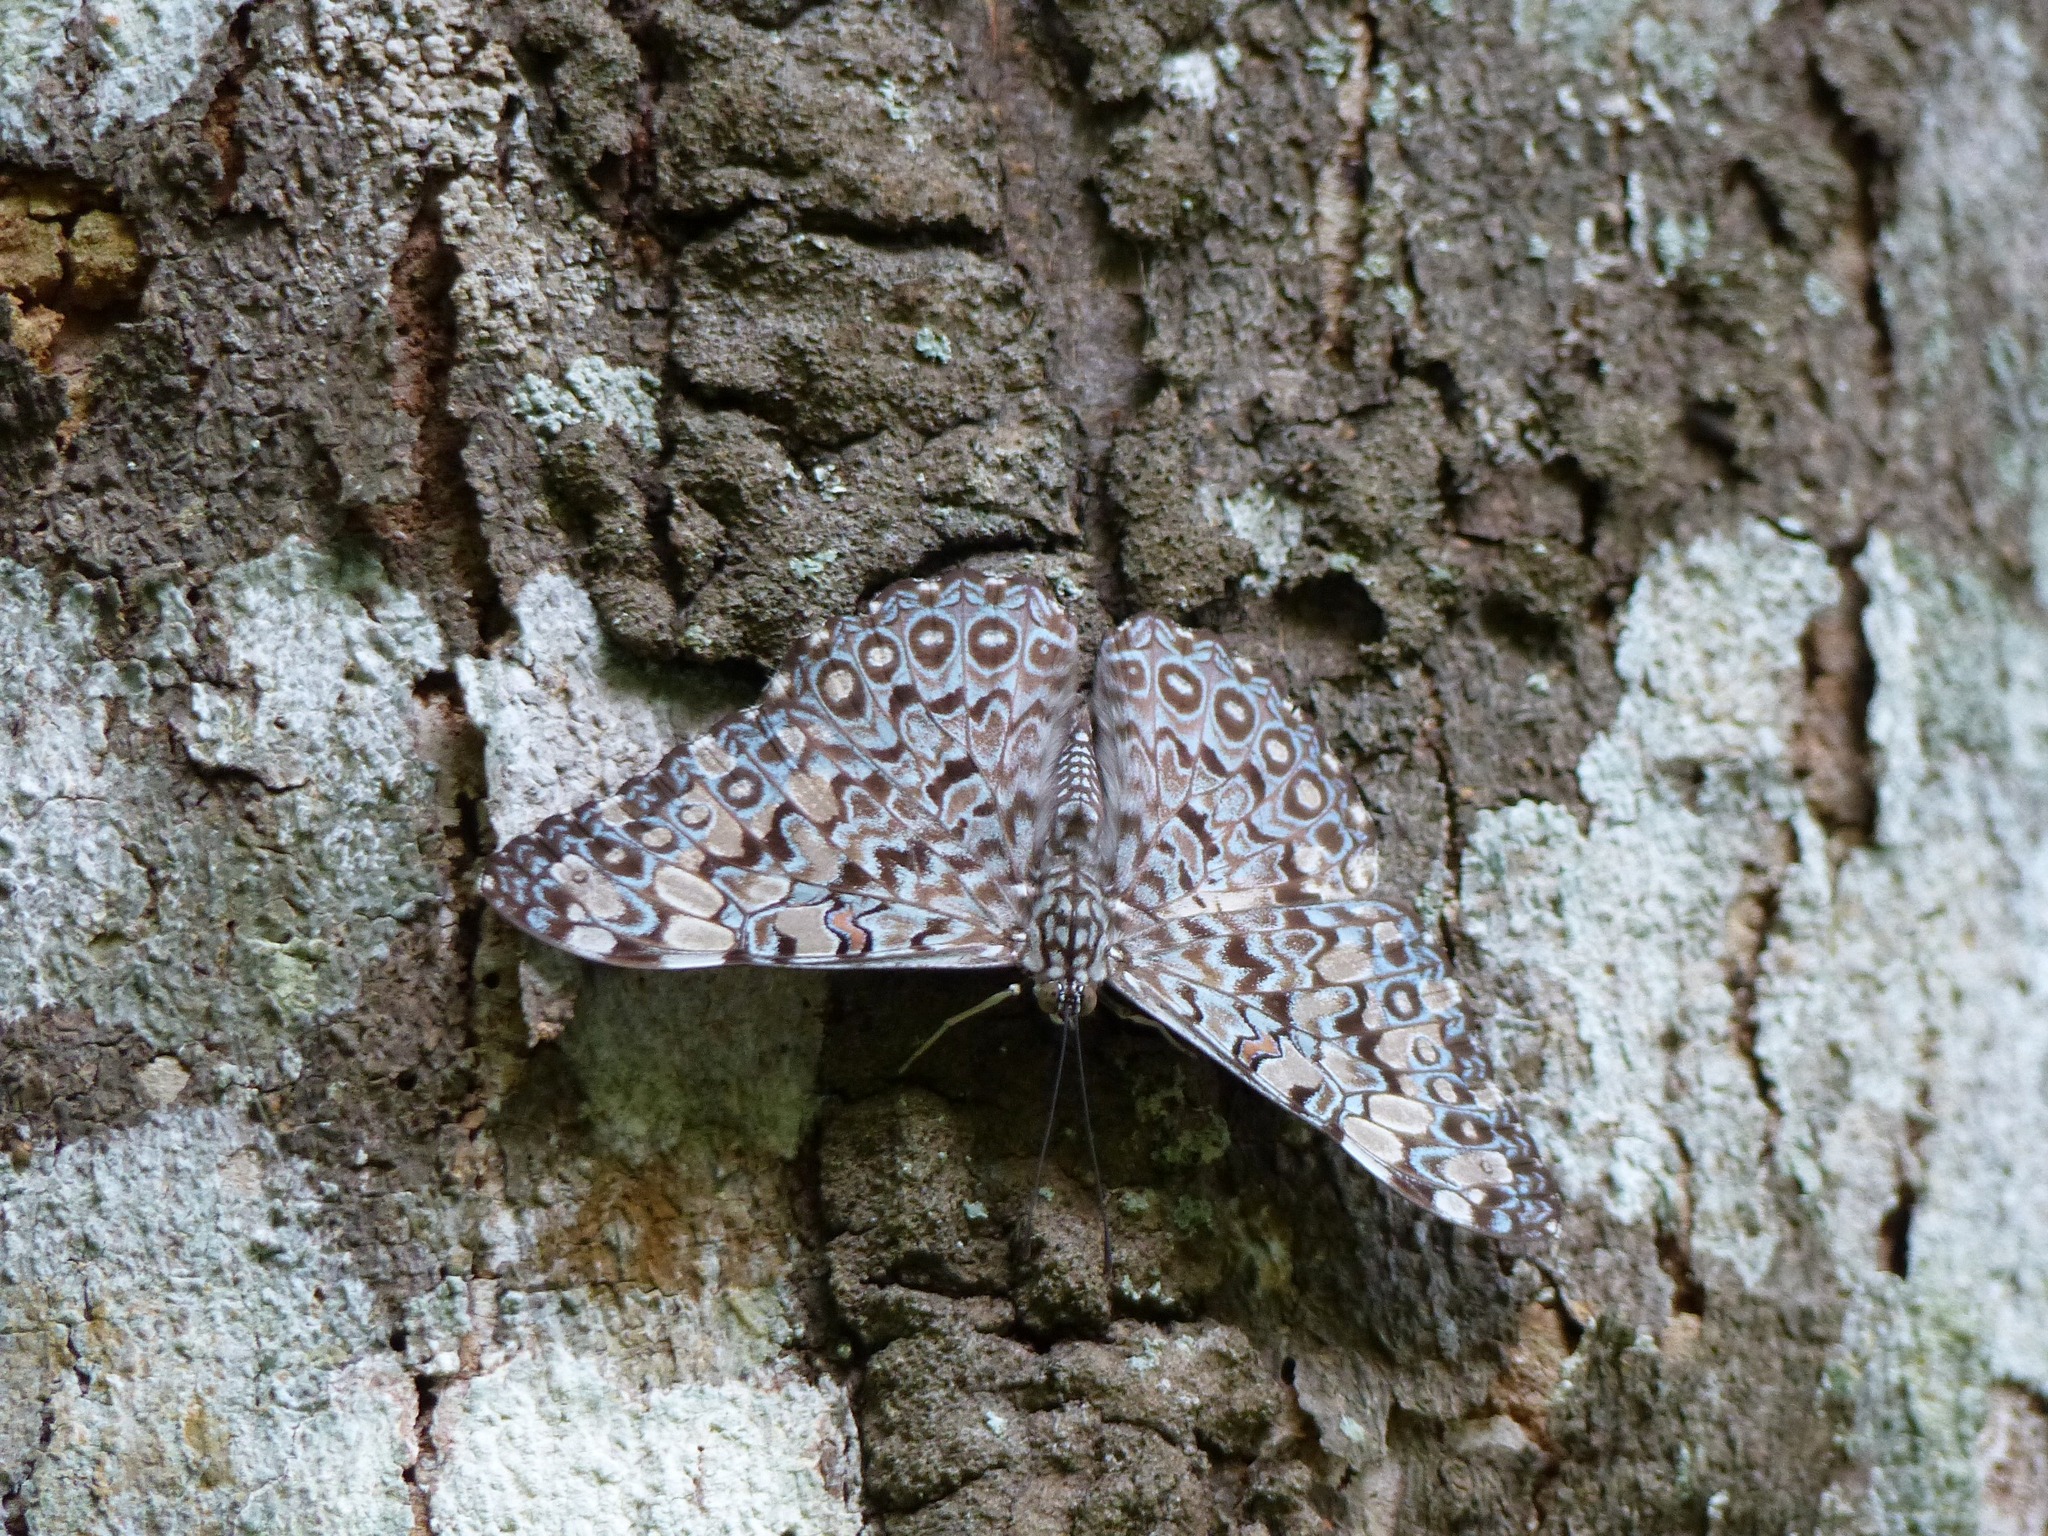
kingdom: Animalia
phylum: Arthropoda
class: Insecta
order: Lepidoptera
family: Nymphalidae
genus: Hamadryas
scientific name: Hamadryas feronia
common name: Variable cracker
